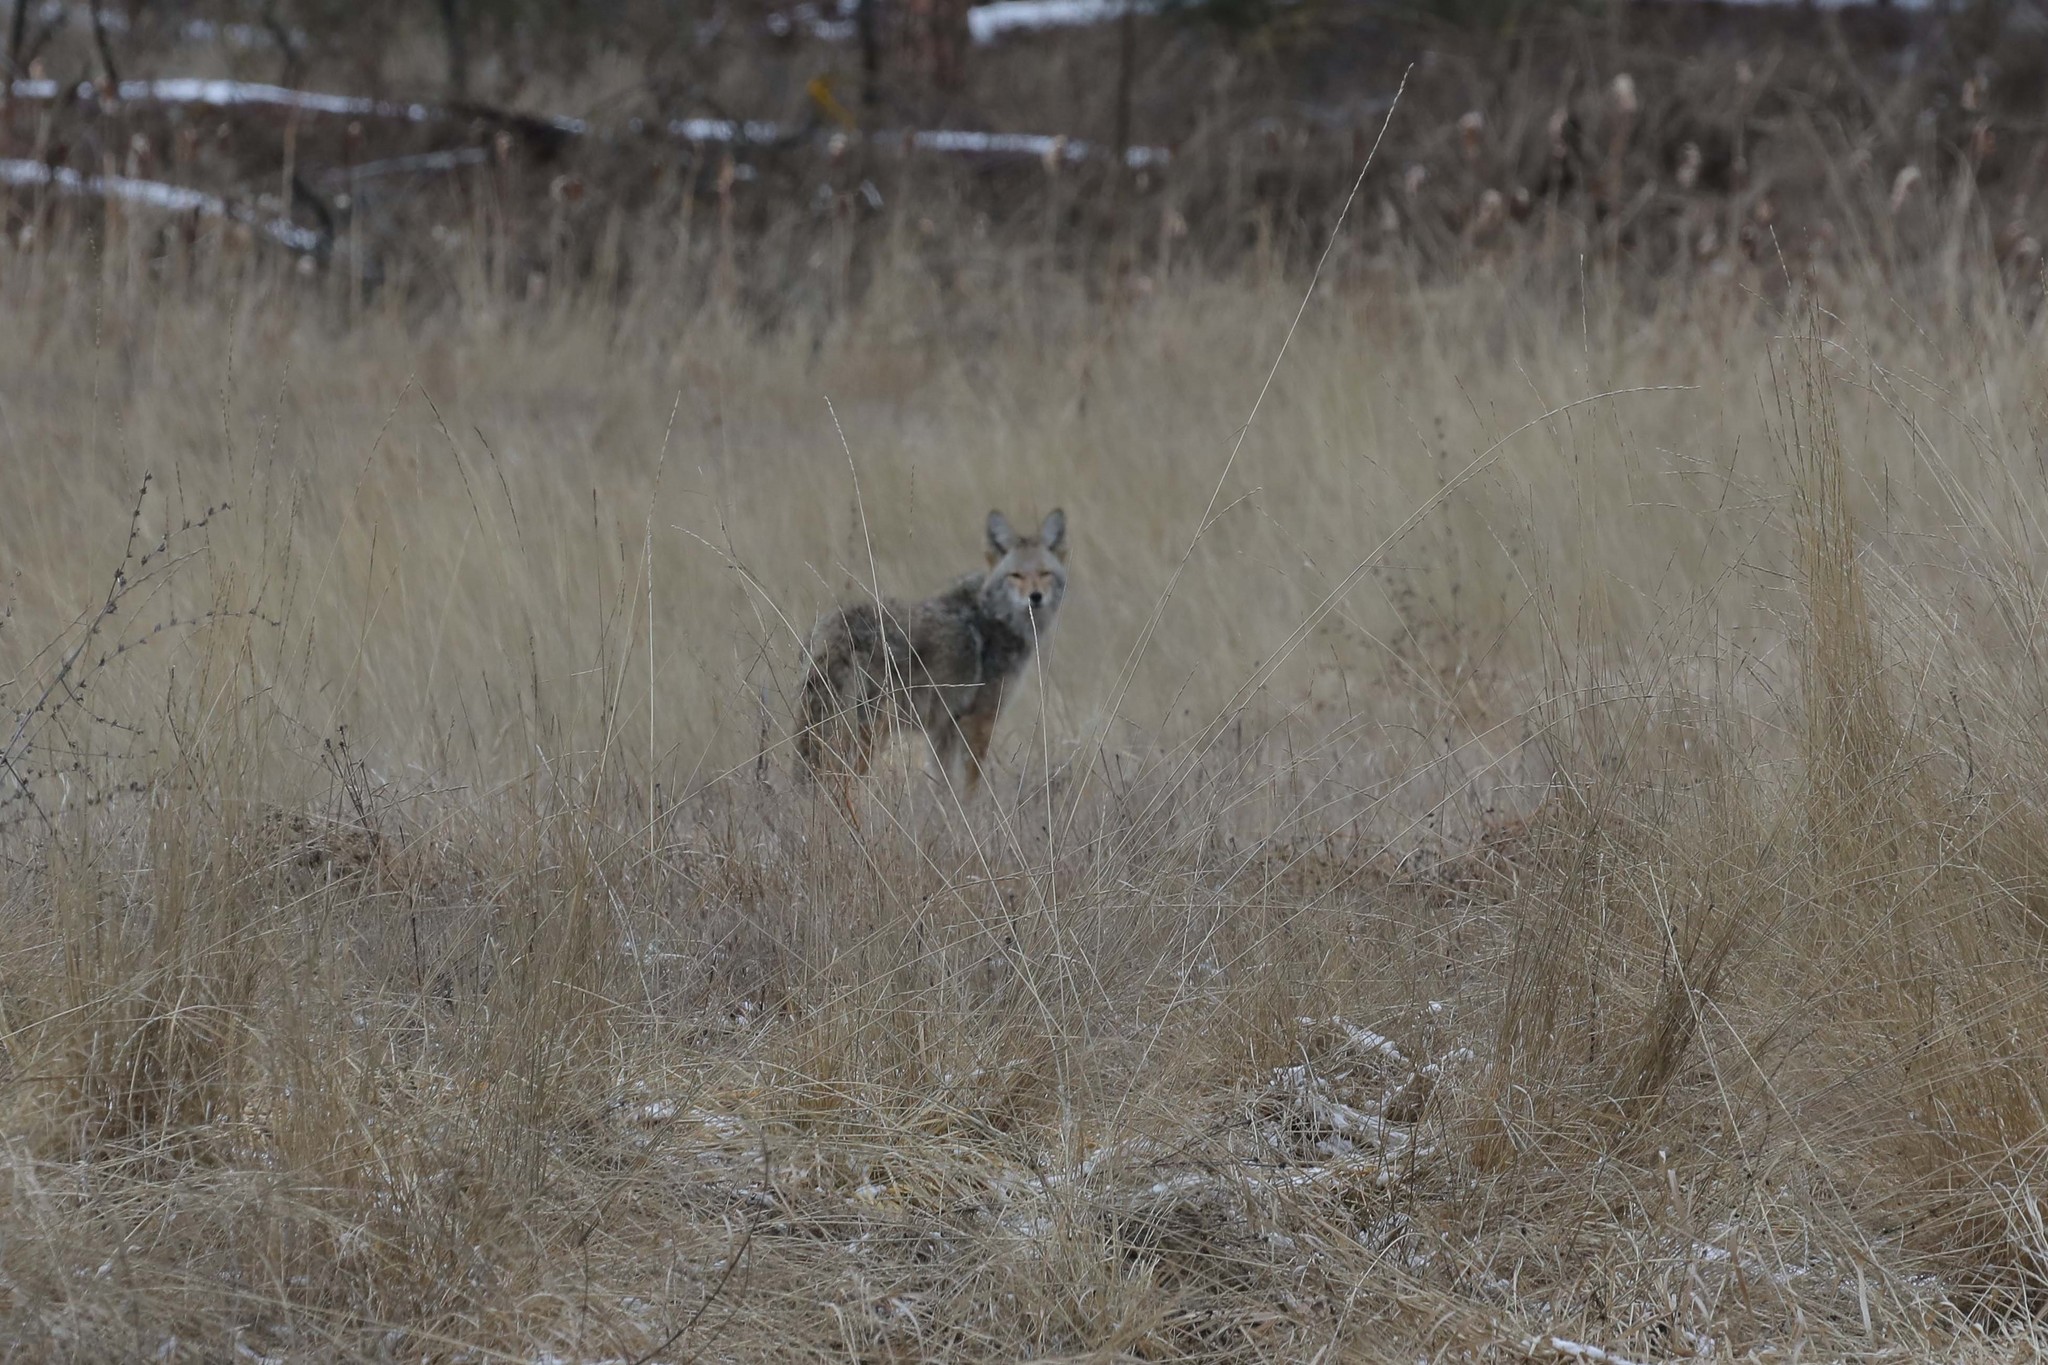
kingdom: Animalia
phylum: Chordata
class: Mammalia
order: Carnivora
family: Canidae
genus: Canis
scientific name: Canis latrans
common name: Coyote
